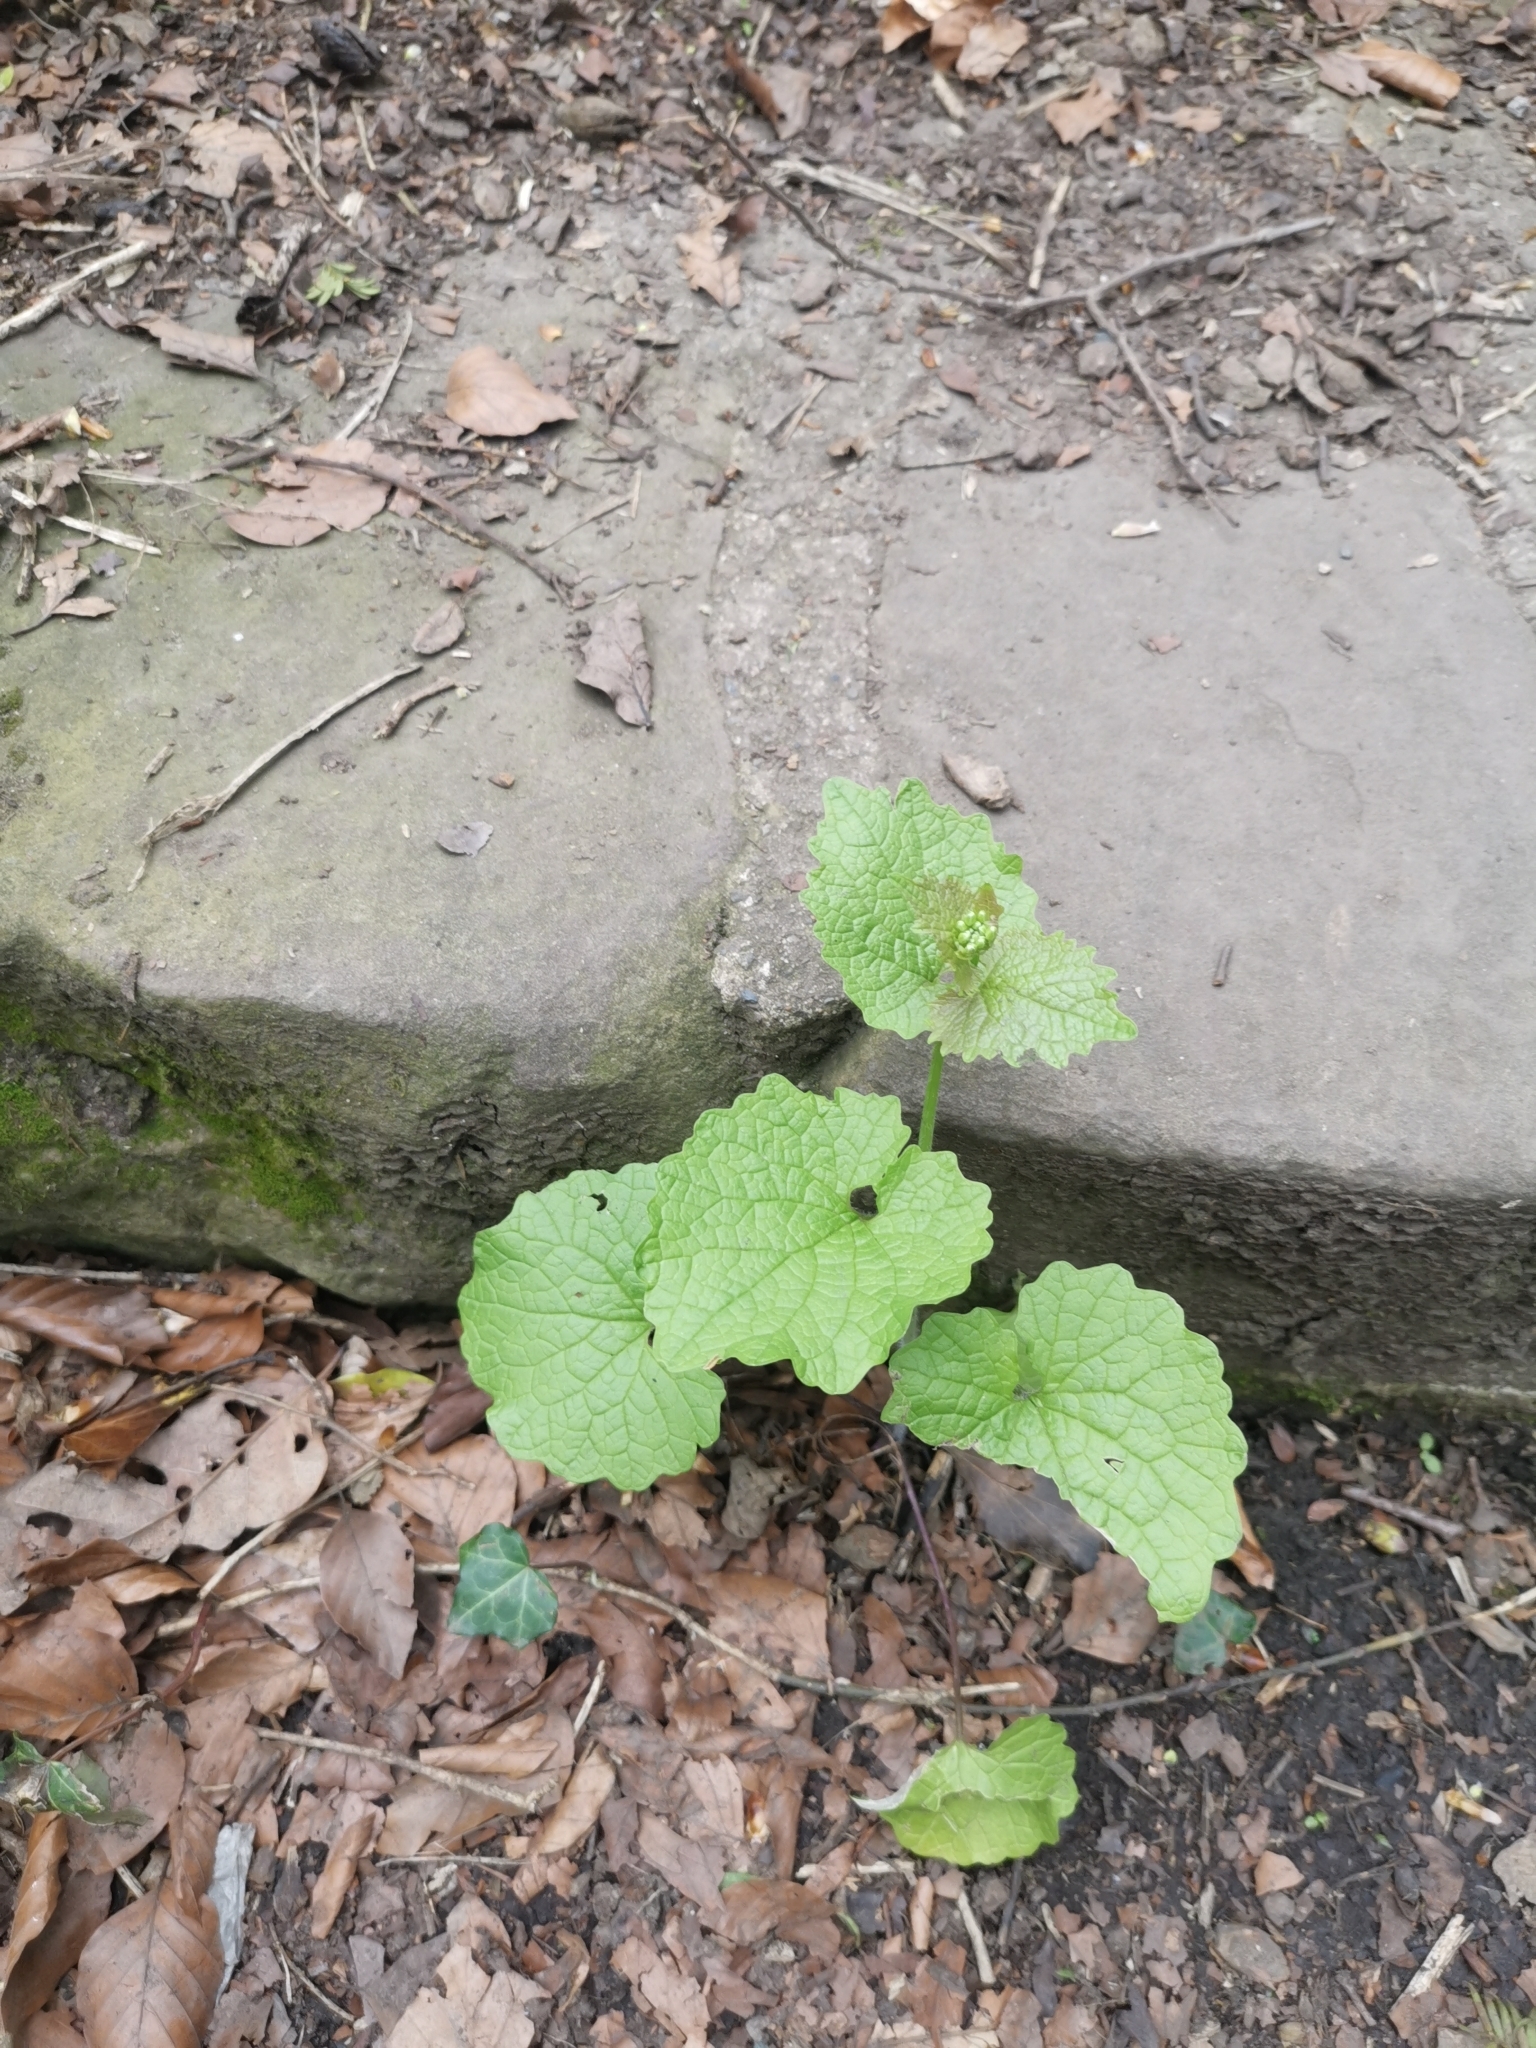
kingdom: Plantae
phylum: Tracheophyta
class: Magnoliopsida
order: Brassicales
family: Brassicaceae
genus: Alliaria
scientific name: Alliaria petiolata
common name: Garlic mustard
